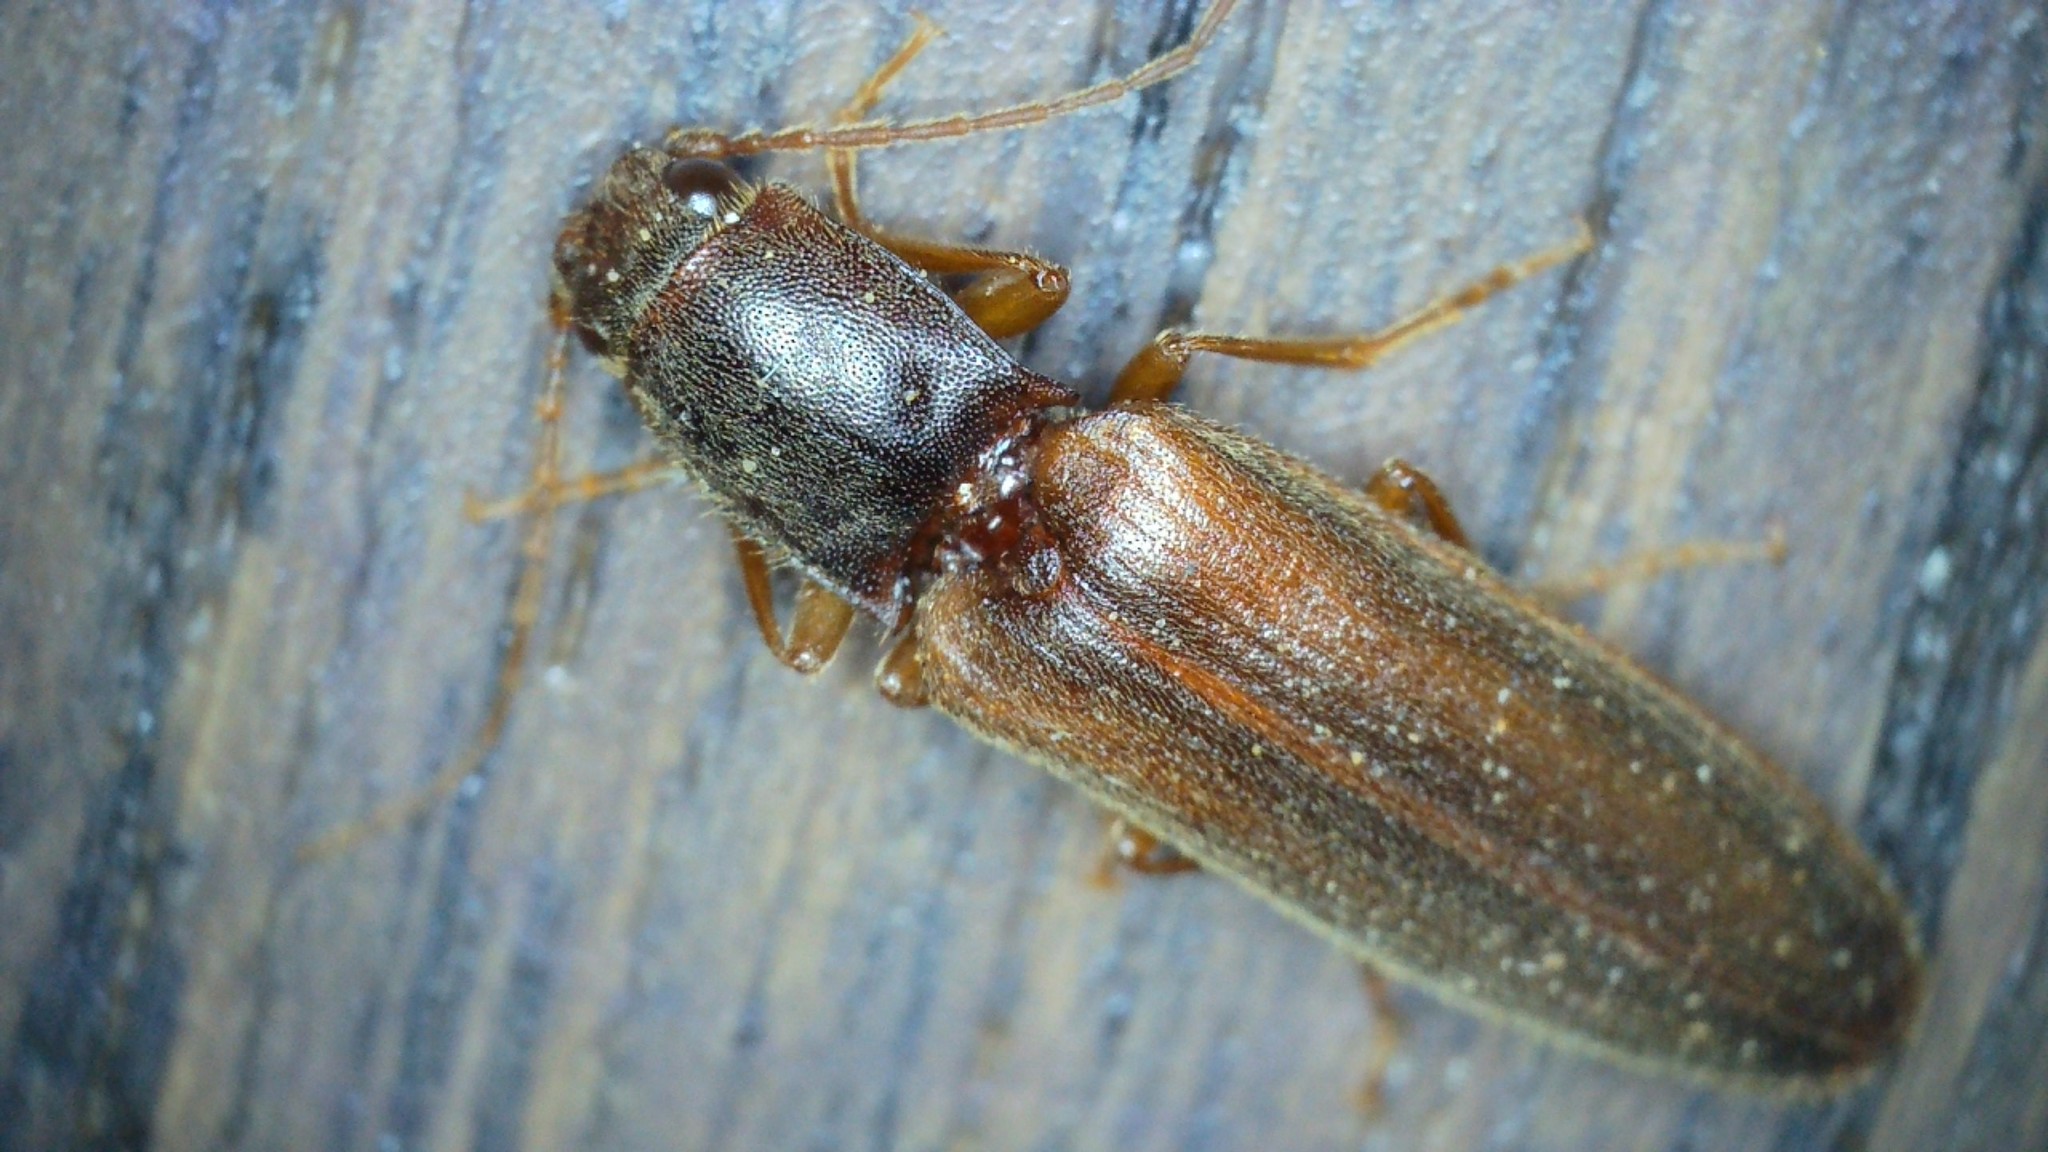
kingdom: Animalia
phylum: Arthropoda
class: Insecta
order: Coleoptera
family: Elateridae
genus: Athous
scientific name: Athous campyloides
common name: Curved click beetle
